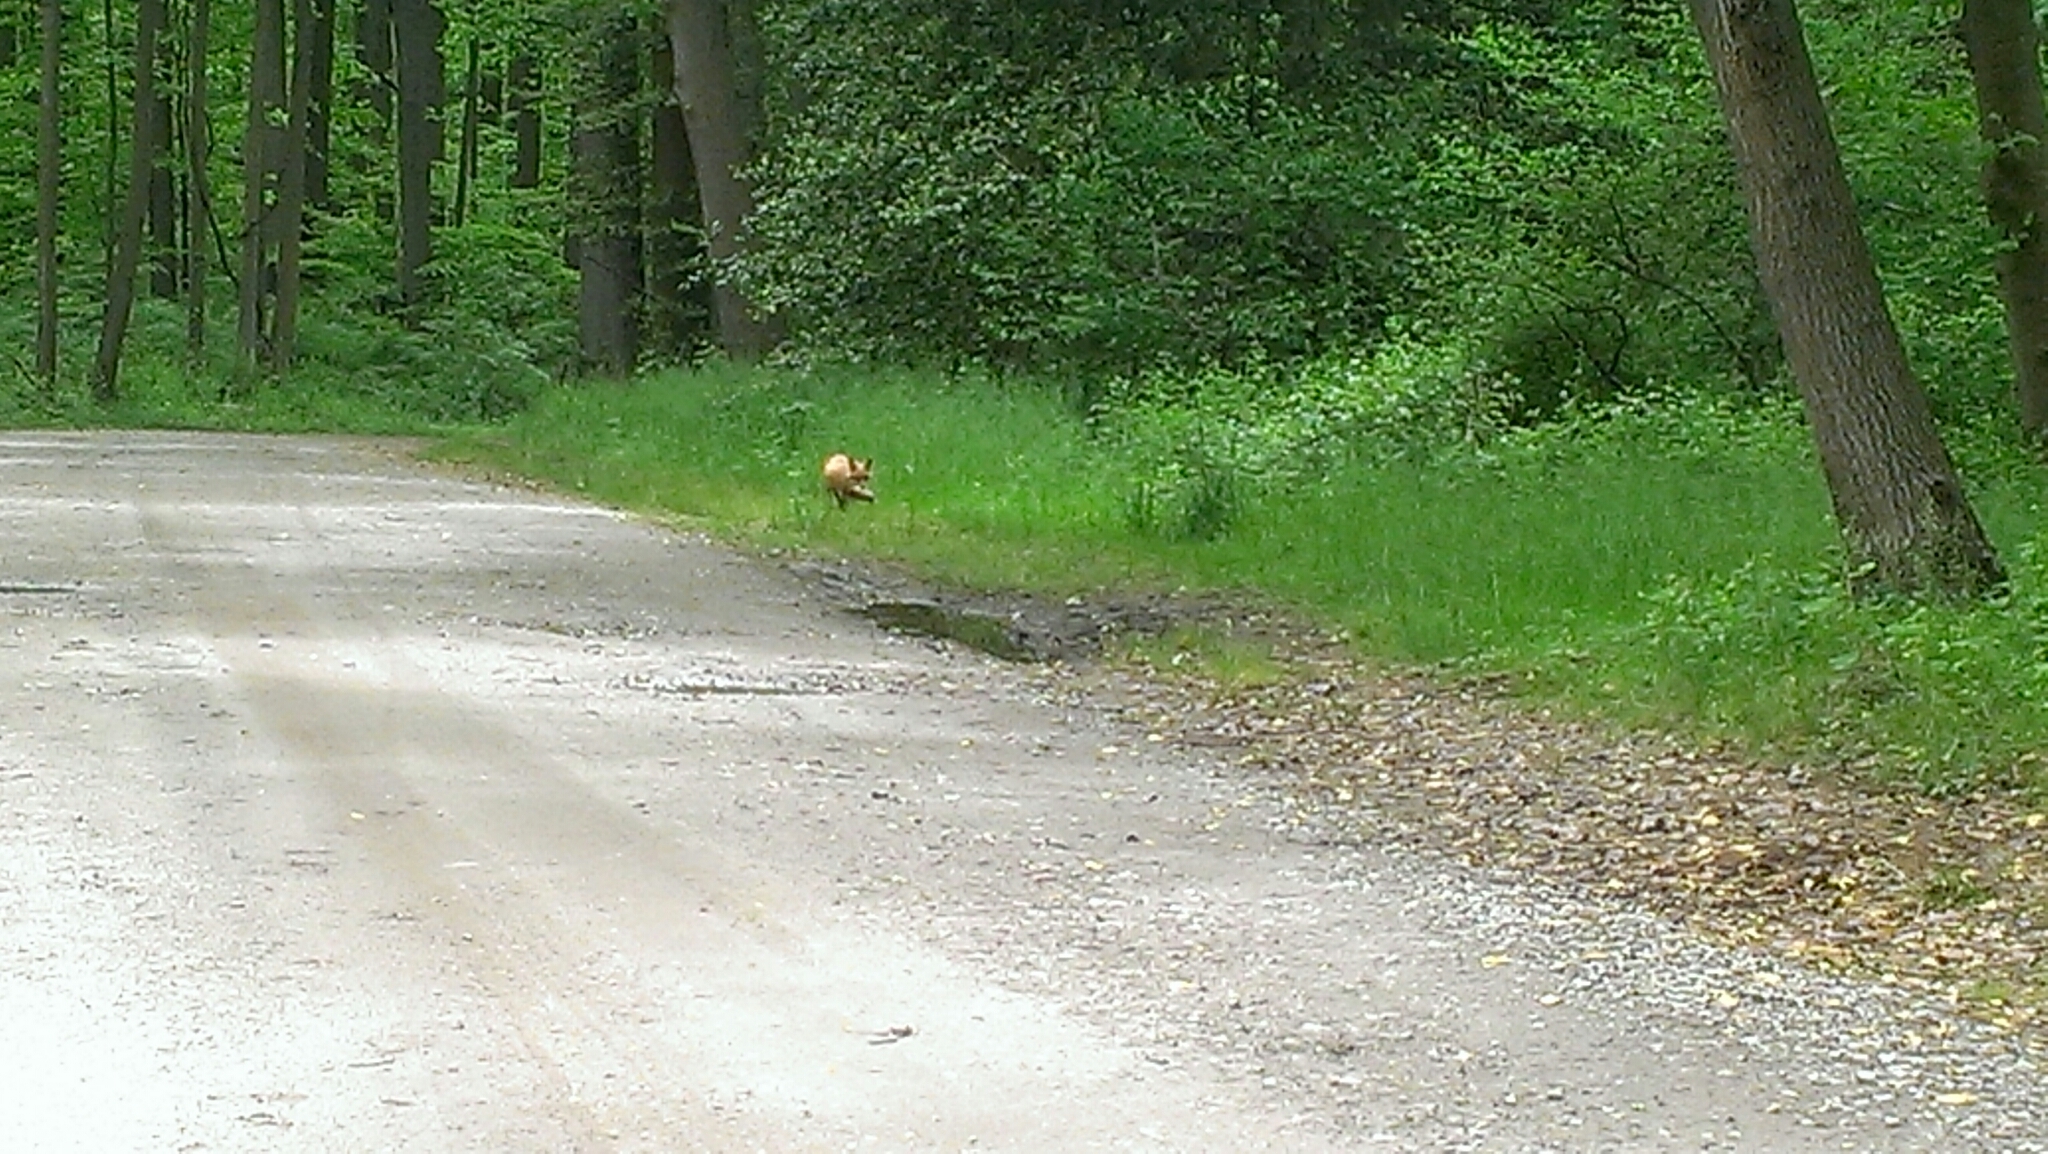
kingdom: Animalia
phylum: Chordata
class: Mammalia
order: Carnivora
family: Canidae
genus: Vulpes
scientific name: Vulpes vulpes
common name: Red fox
